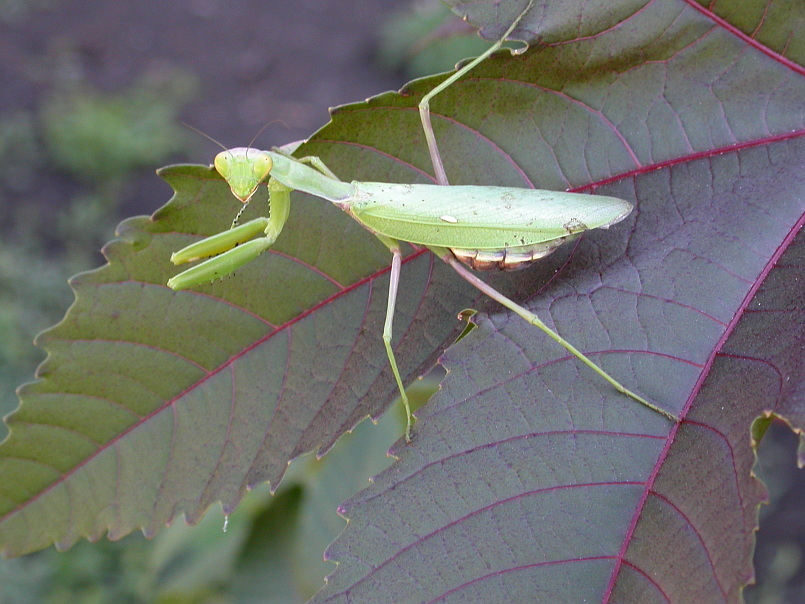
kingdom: Animalia
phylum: Arthropoda
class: Insecta
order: Mantodea
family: Mantidae
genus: Hierodula
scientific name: Hierodula transcaucasica
